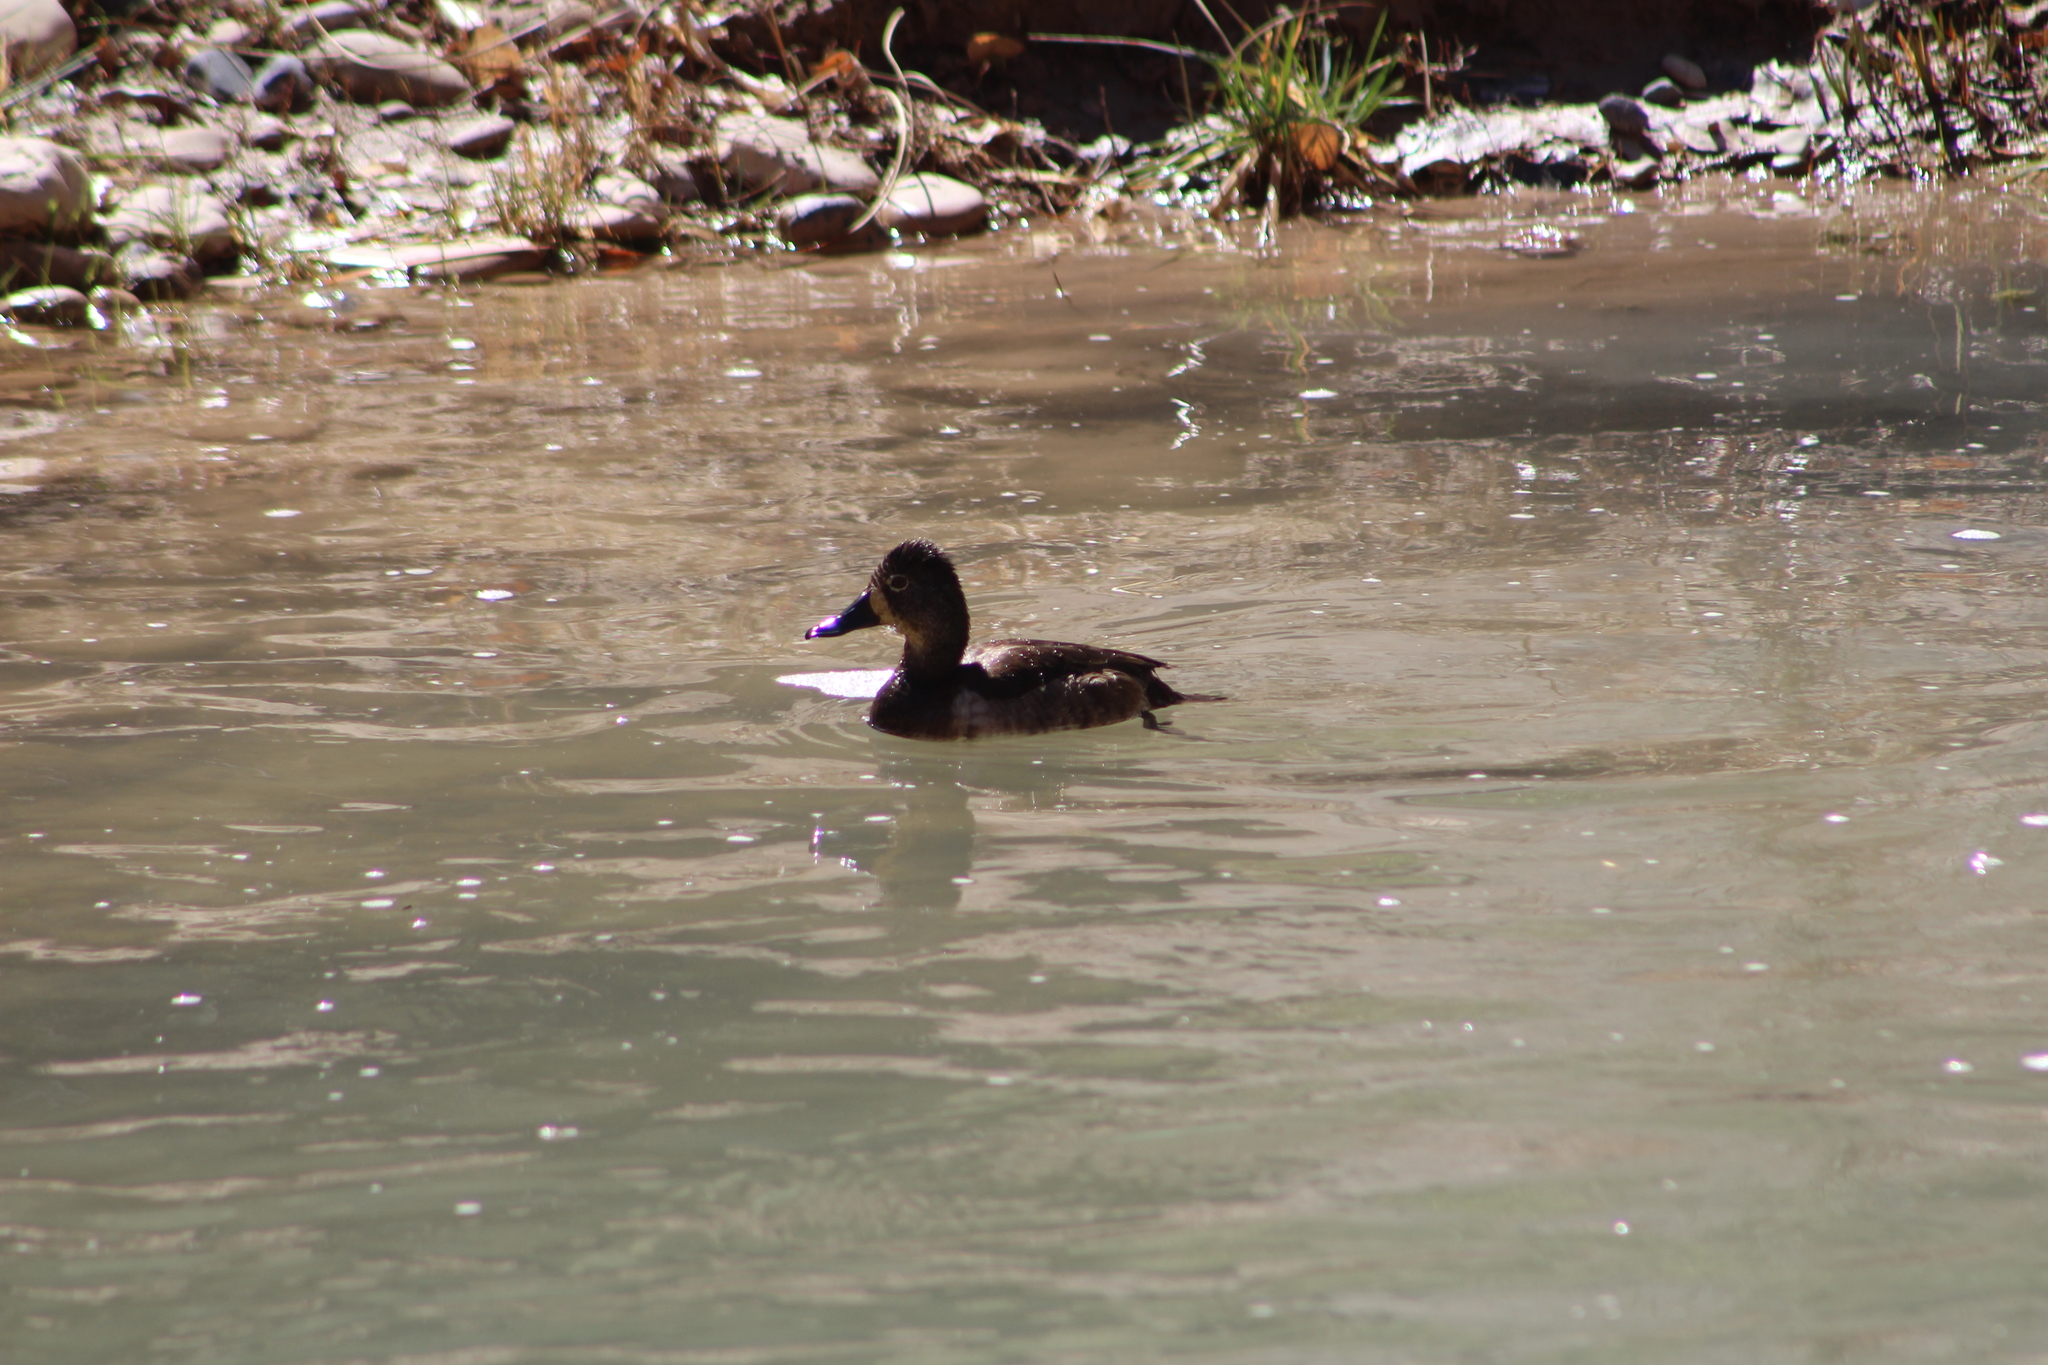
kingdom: Animalia
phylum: Chordata
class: Aves
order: Anseriformes
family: Anatidae
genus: Aythya
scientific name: Aythya collaris
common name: Ring-necked duck
